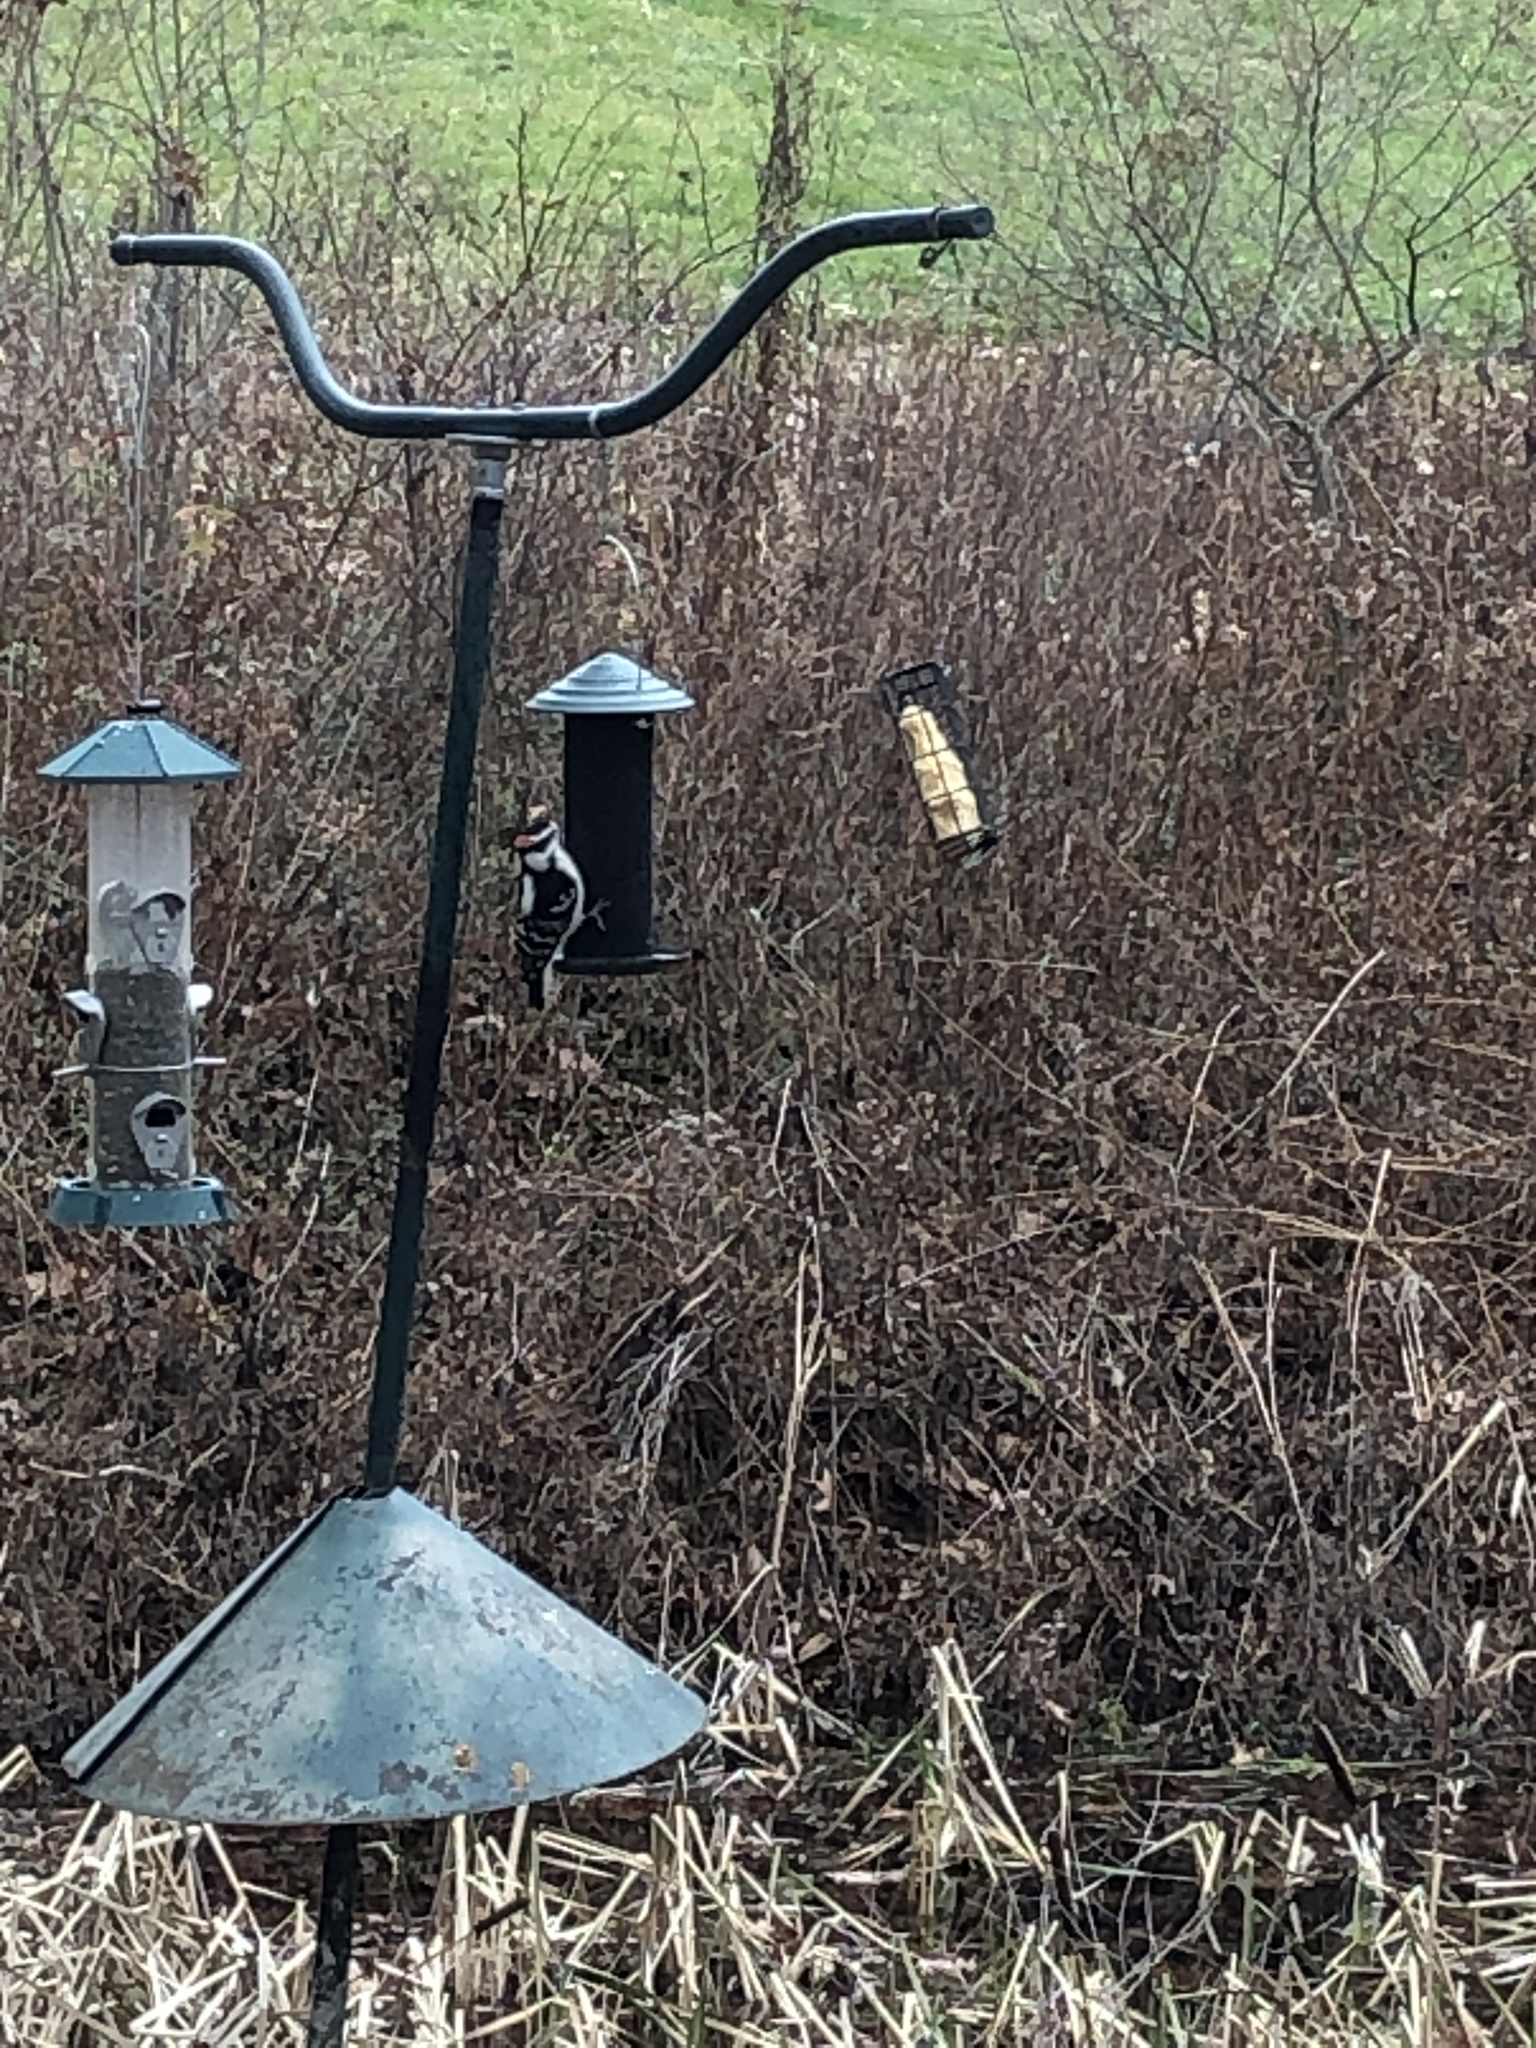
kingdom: Animalia
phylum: Chordata
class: Aves
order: Piciformes
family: Picidae
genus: Dryobates
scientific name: Dryobates pubescens
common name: Downy woodpecker
